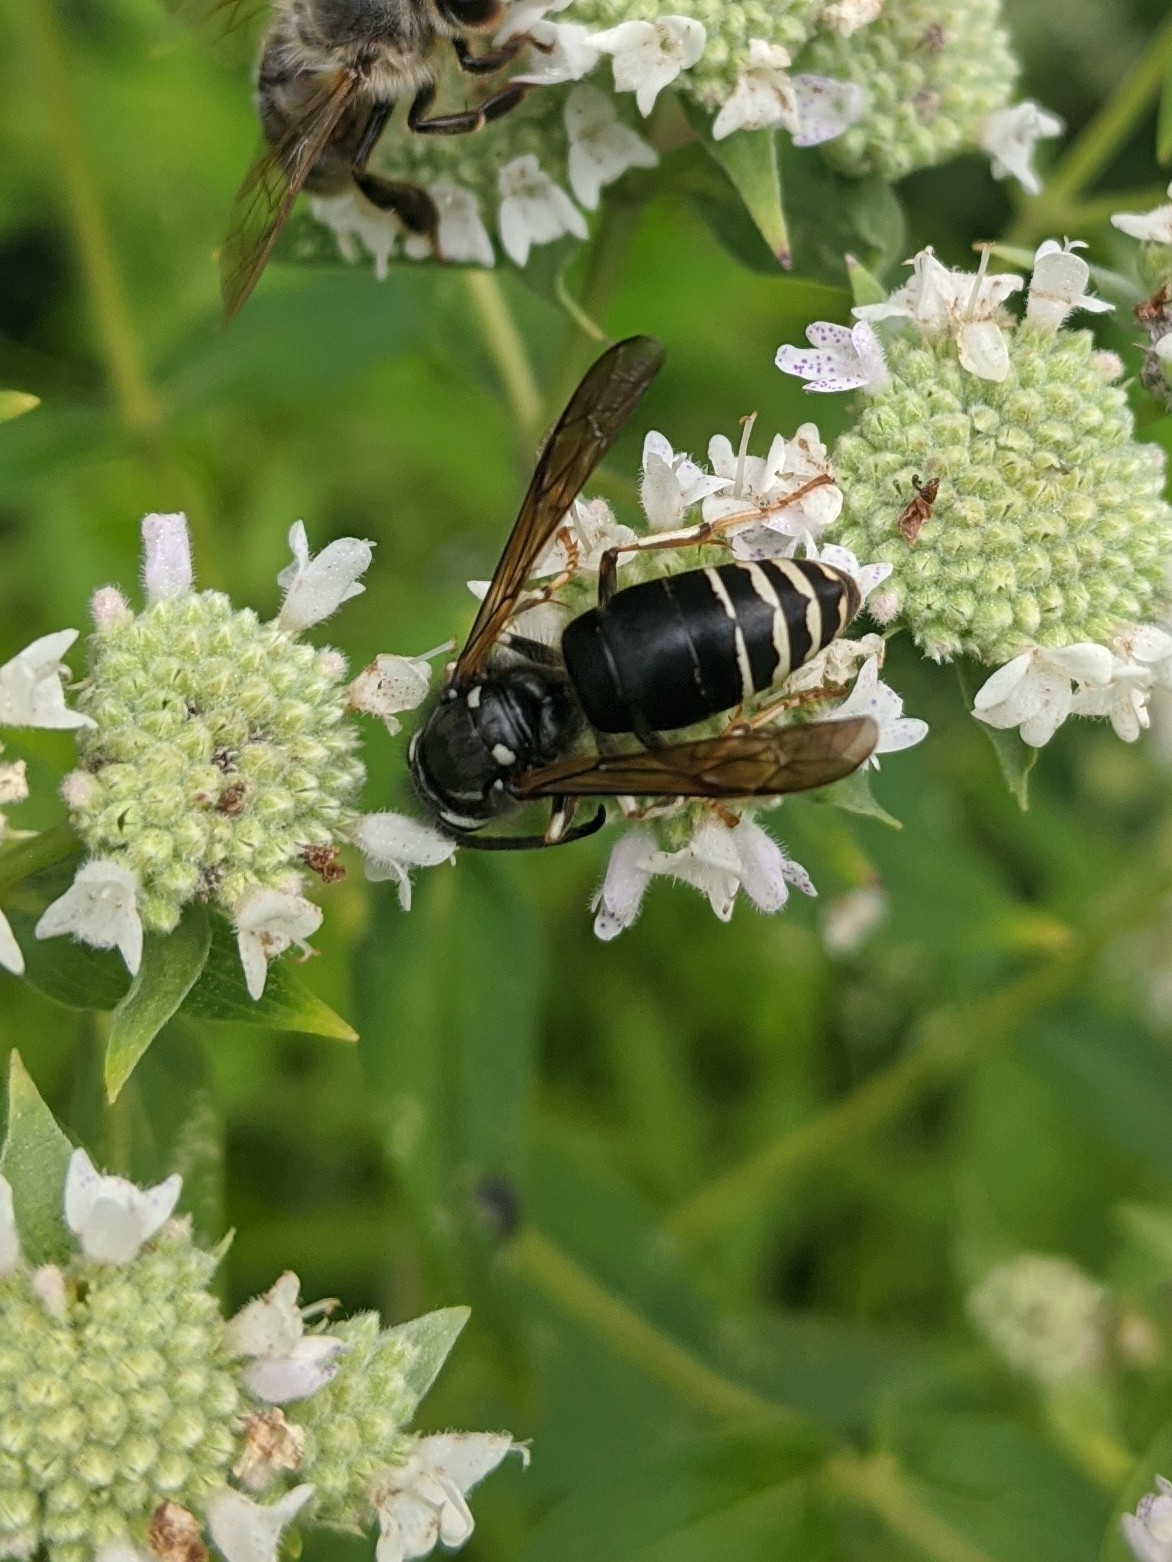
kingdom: Animalia
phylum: Arthropoda
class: Insecta
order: Hymenoptera
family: Vespidae
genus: Dolichovespula
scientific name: Dolichovespula maculata
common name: Bald-faced hornet
